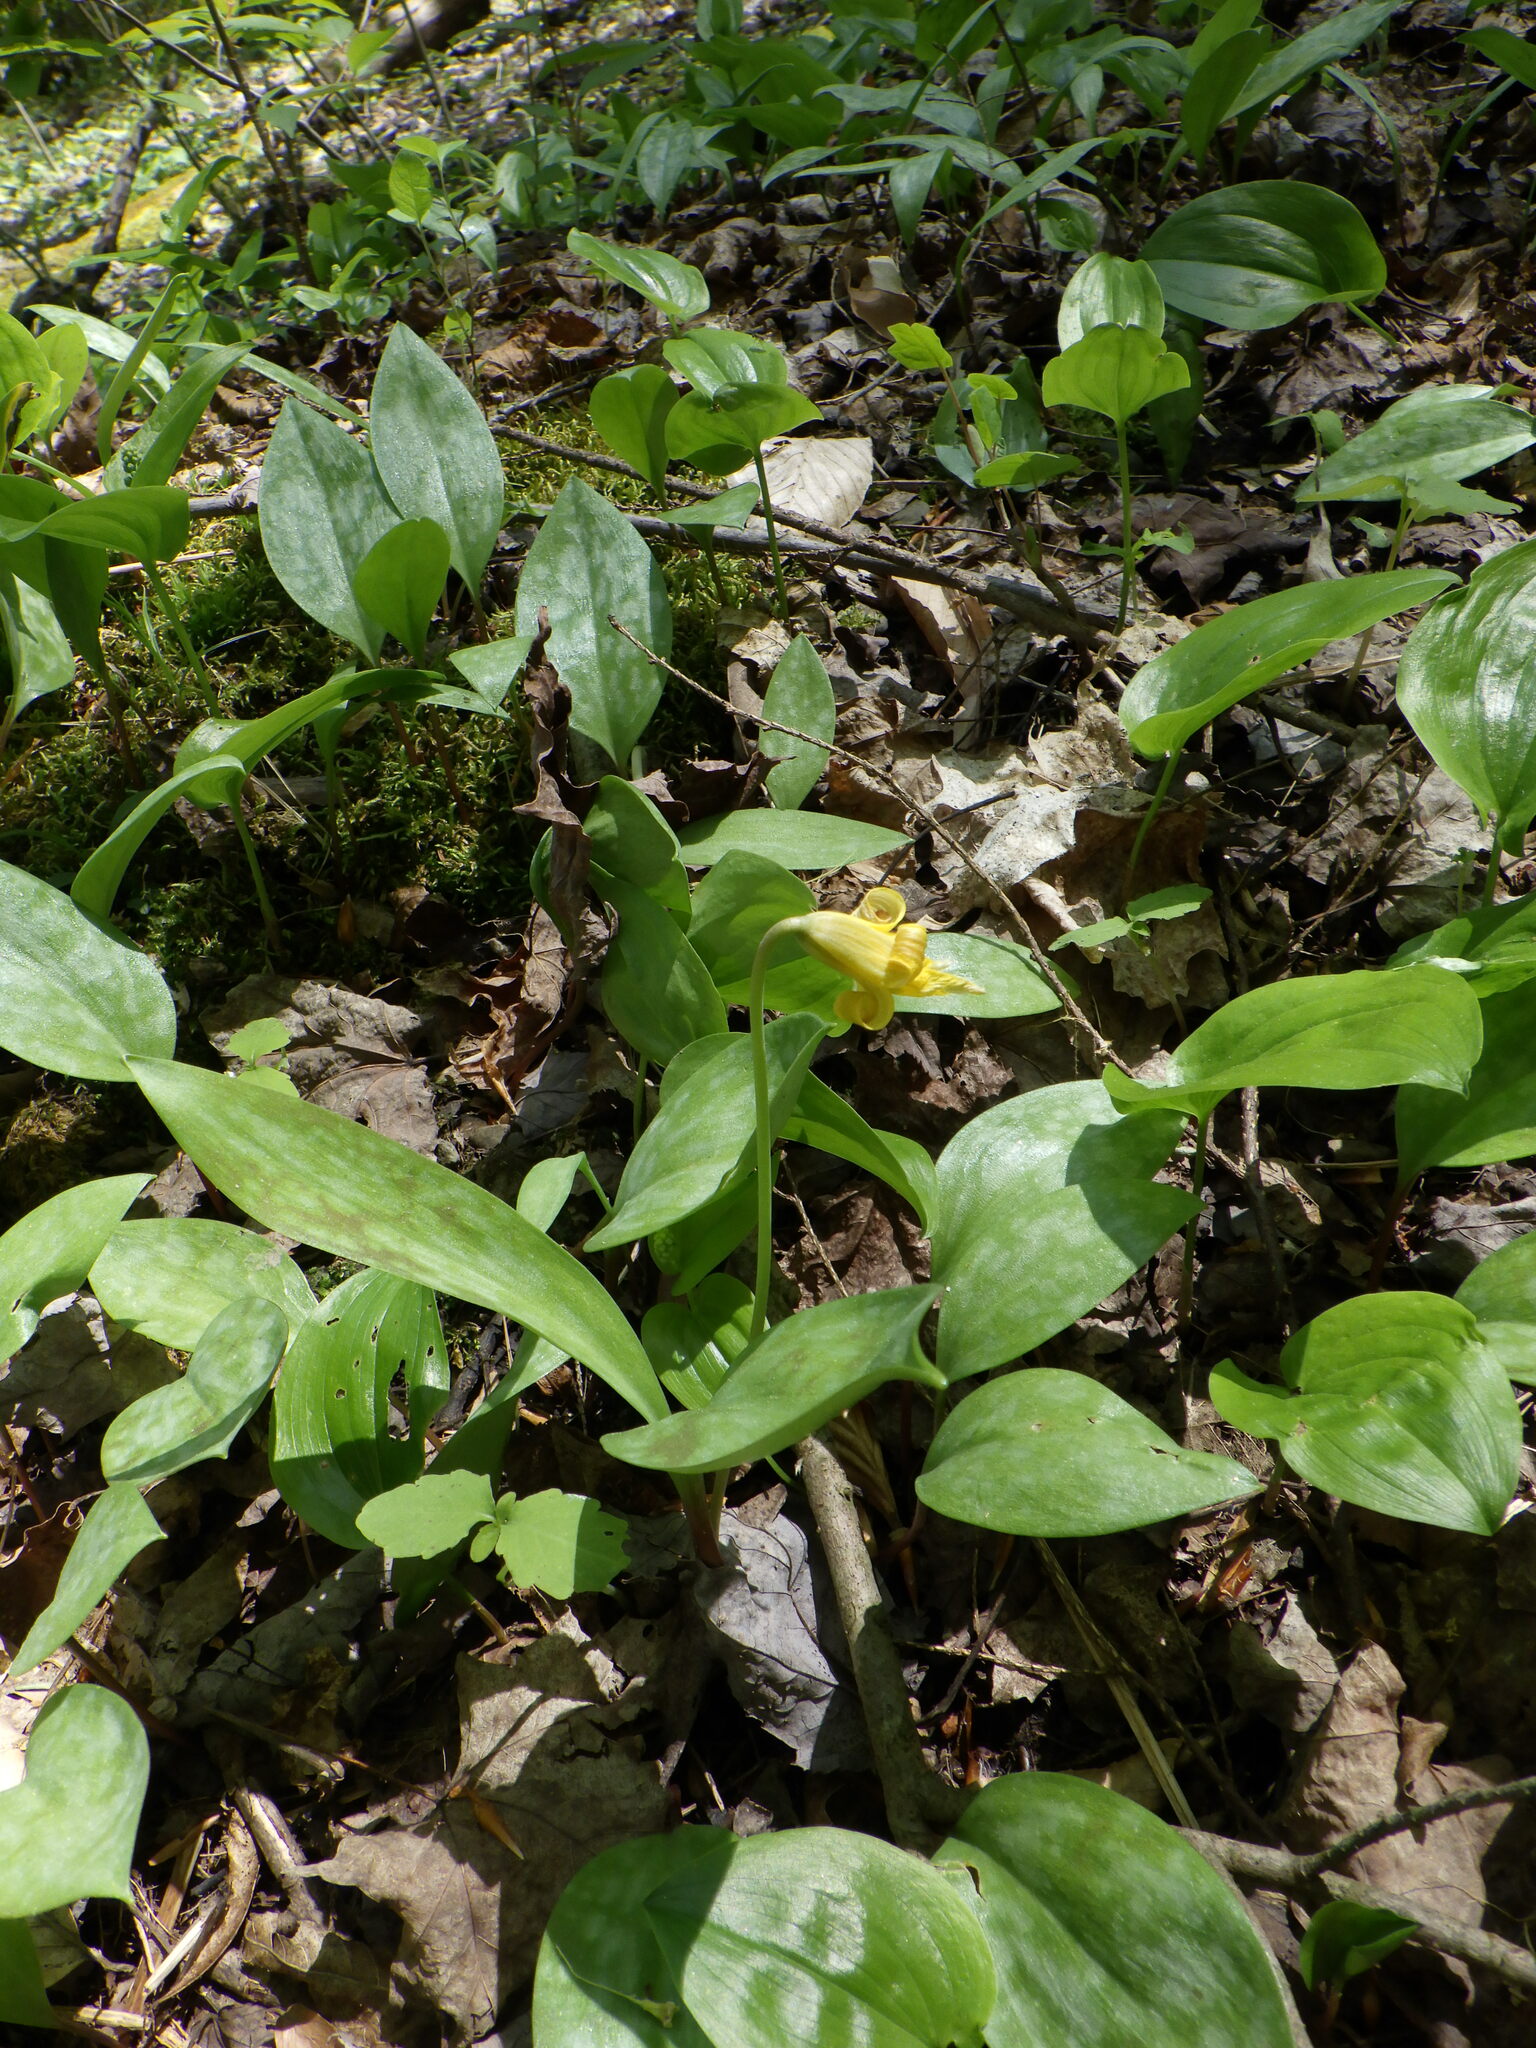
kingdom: Plantae
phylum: Tracheophyta
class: Liliopsida
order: Liliales
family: Liliaceae
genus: Erythronium
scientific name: Erythronium americanum
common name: Yellow adder's-tongue
